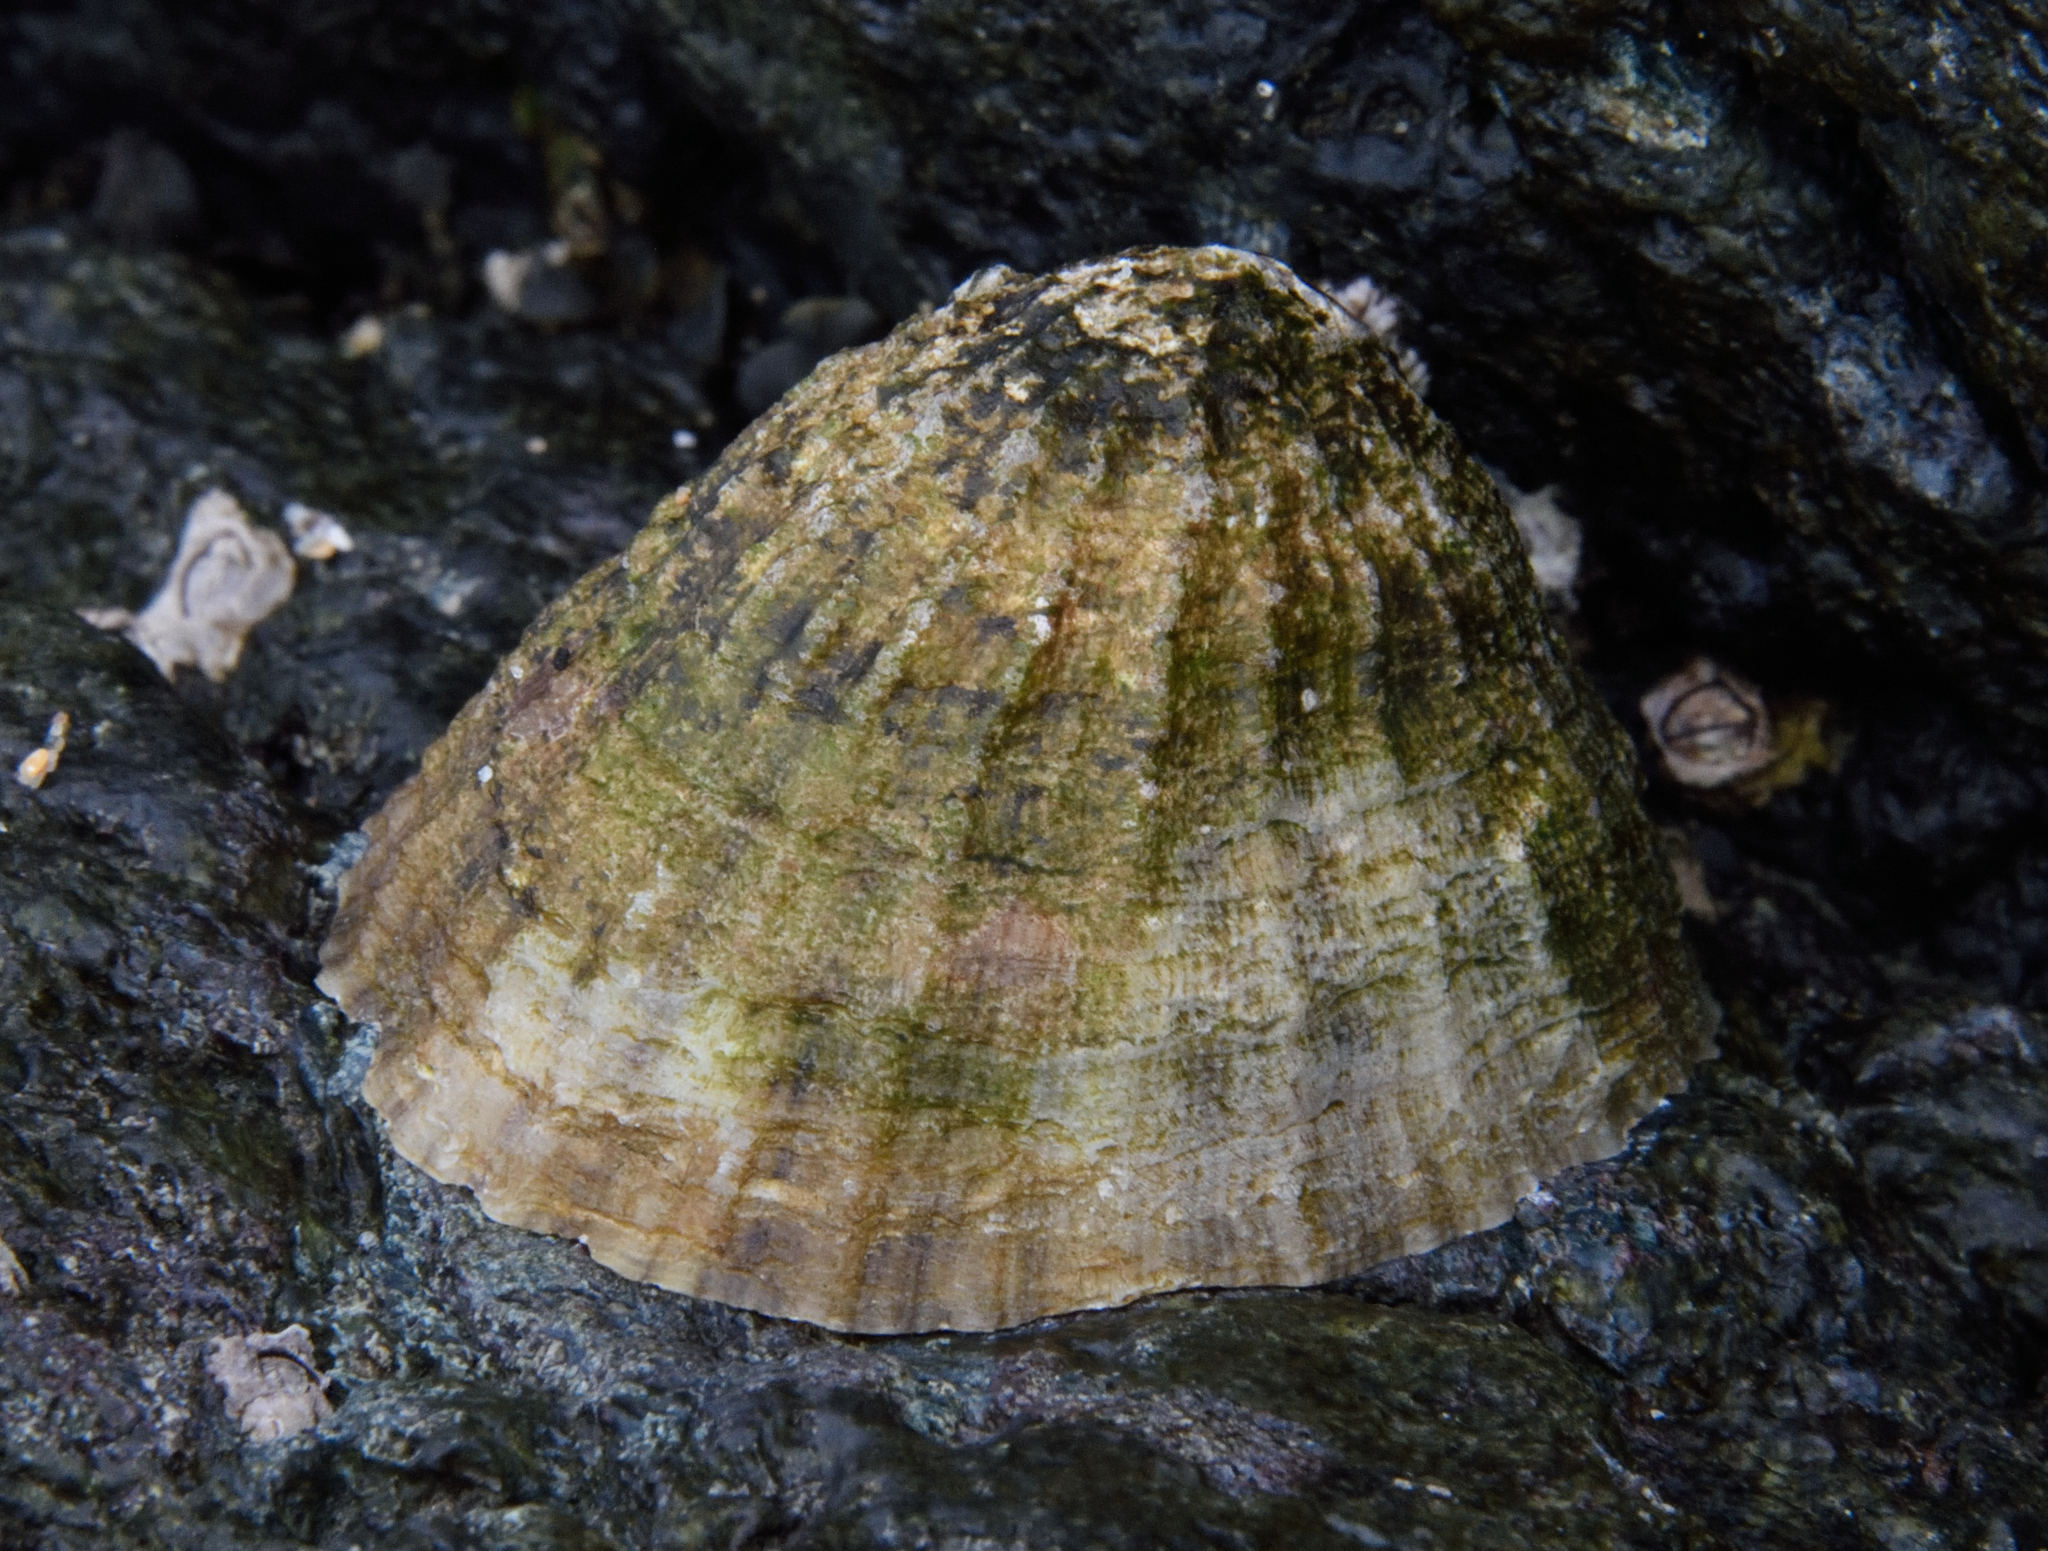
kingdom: Animalia
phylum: Mollusca
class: Gastropoda
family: Patellidae
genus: Patella
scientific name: Patella vulgata
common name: Common limpet
